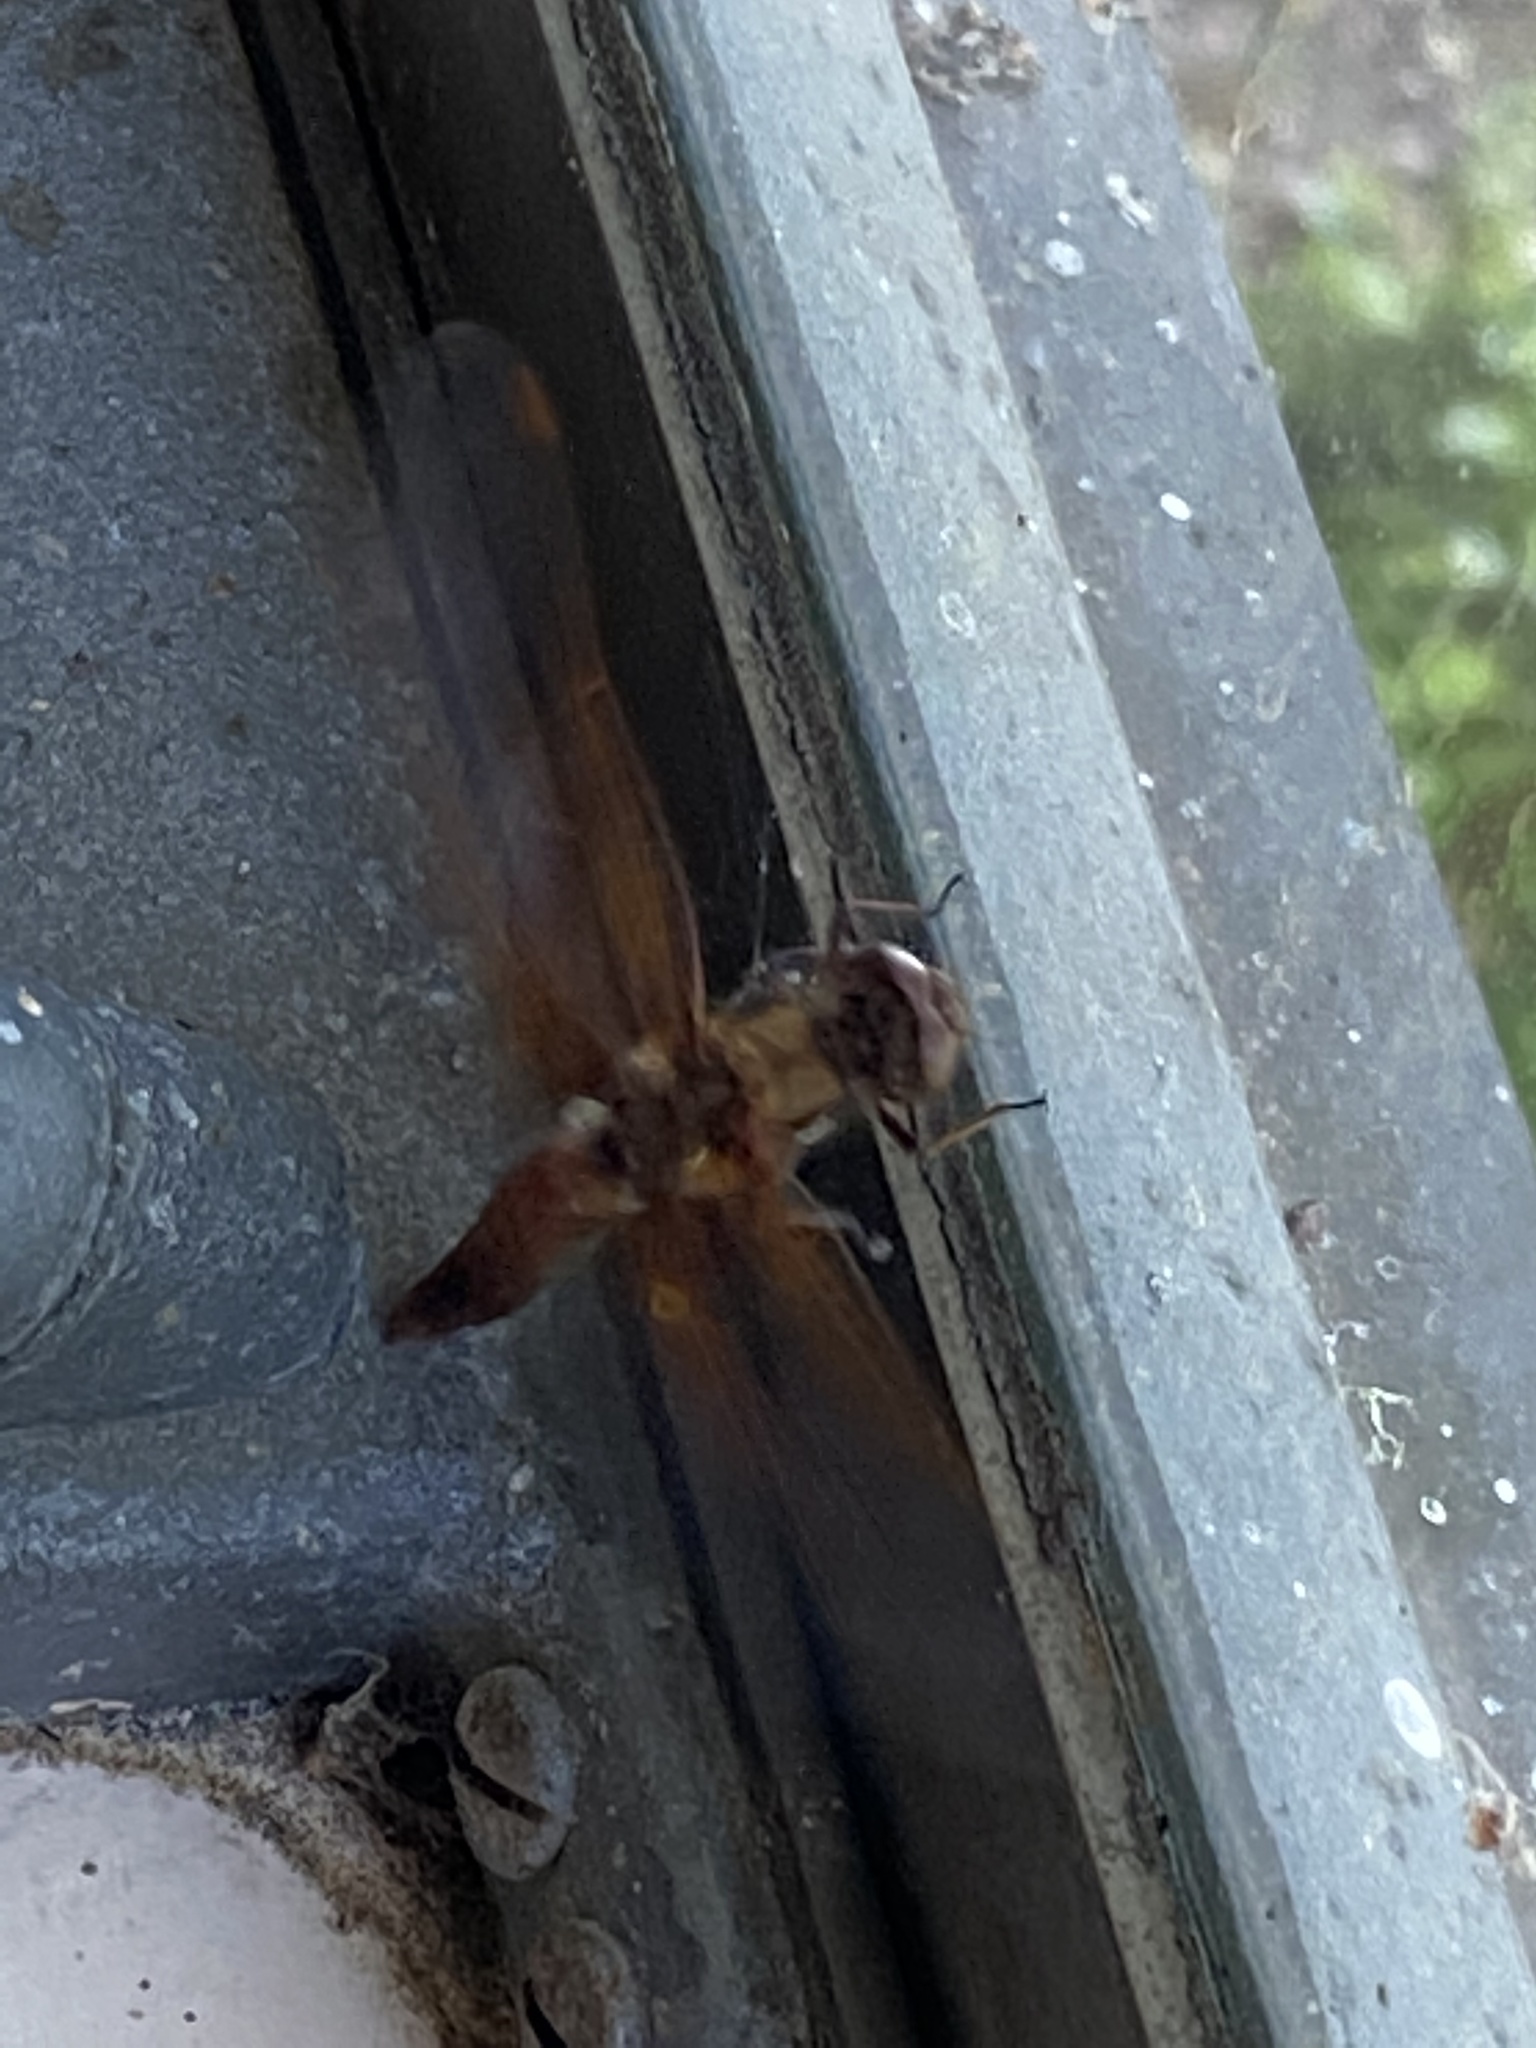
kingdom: Animalia
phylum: Arthropoda
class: Insecta
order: Odonata
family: Libellulidae
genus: Sympetrum
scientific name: Sympetrum illotum
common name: Cardinal meadowhawk
